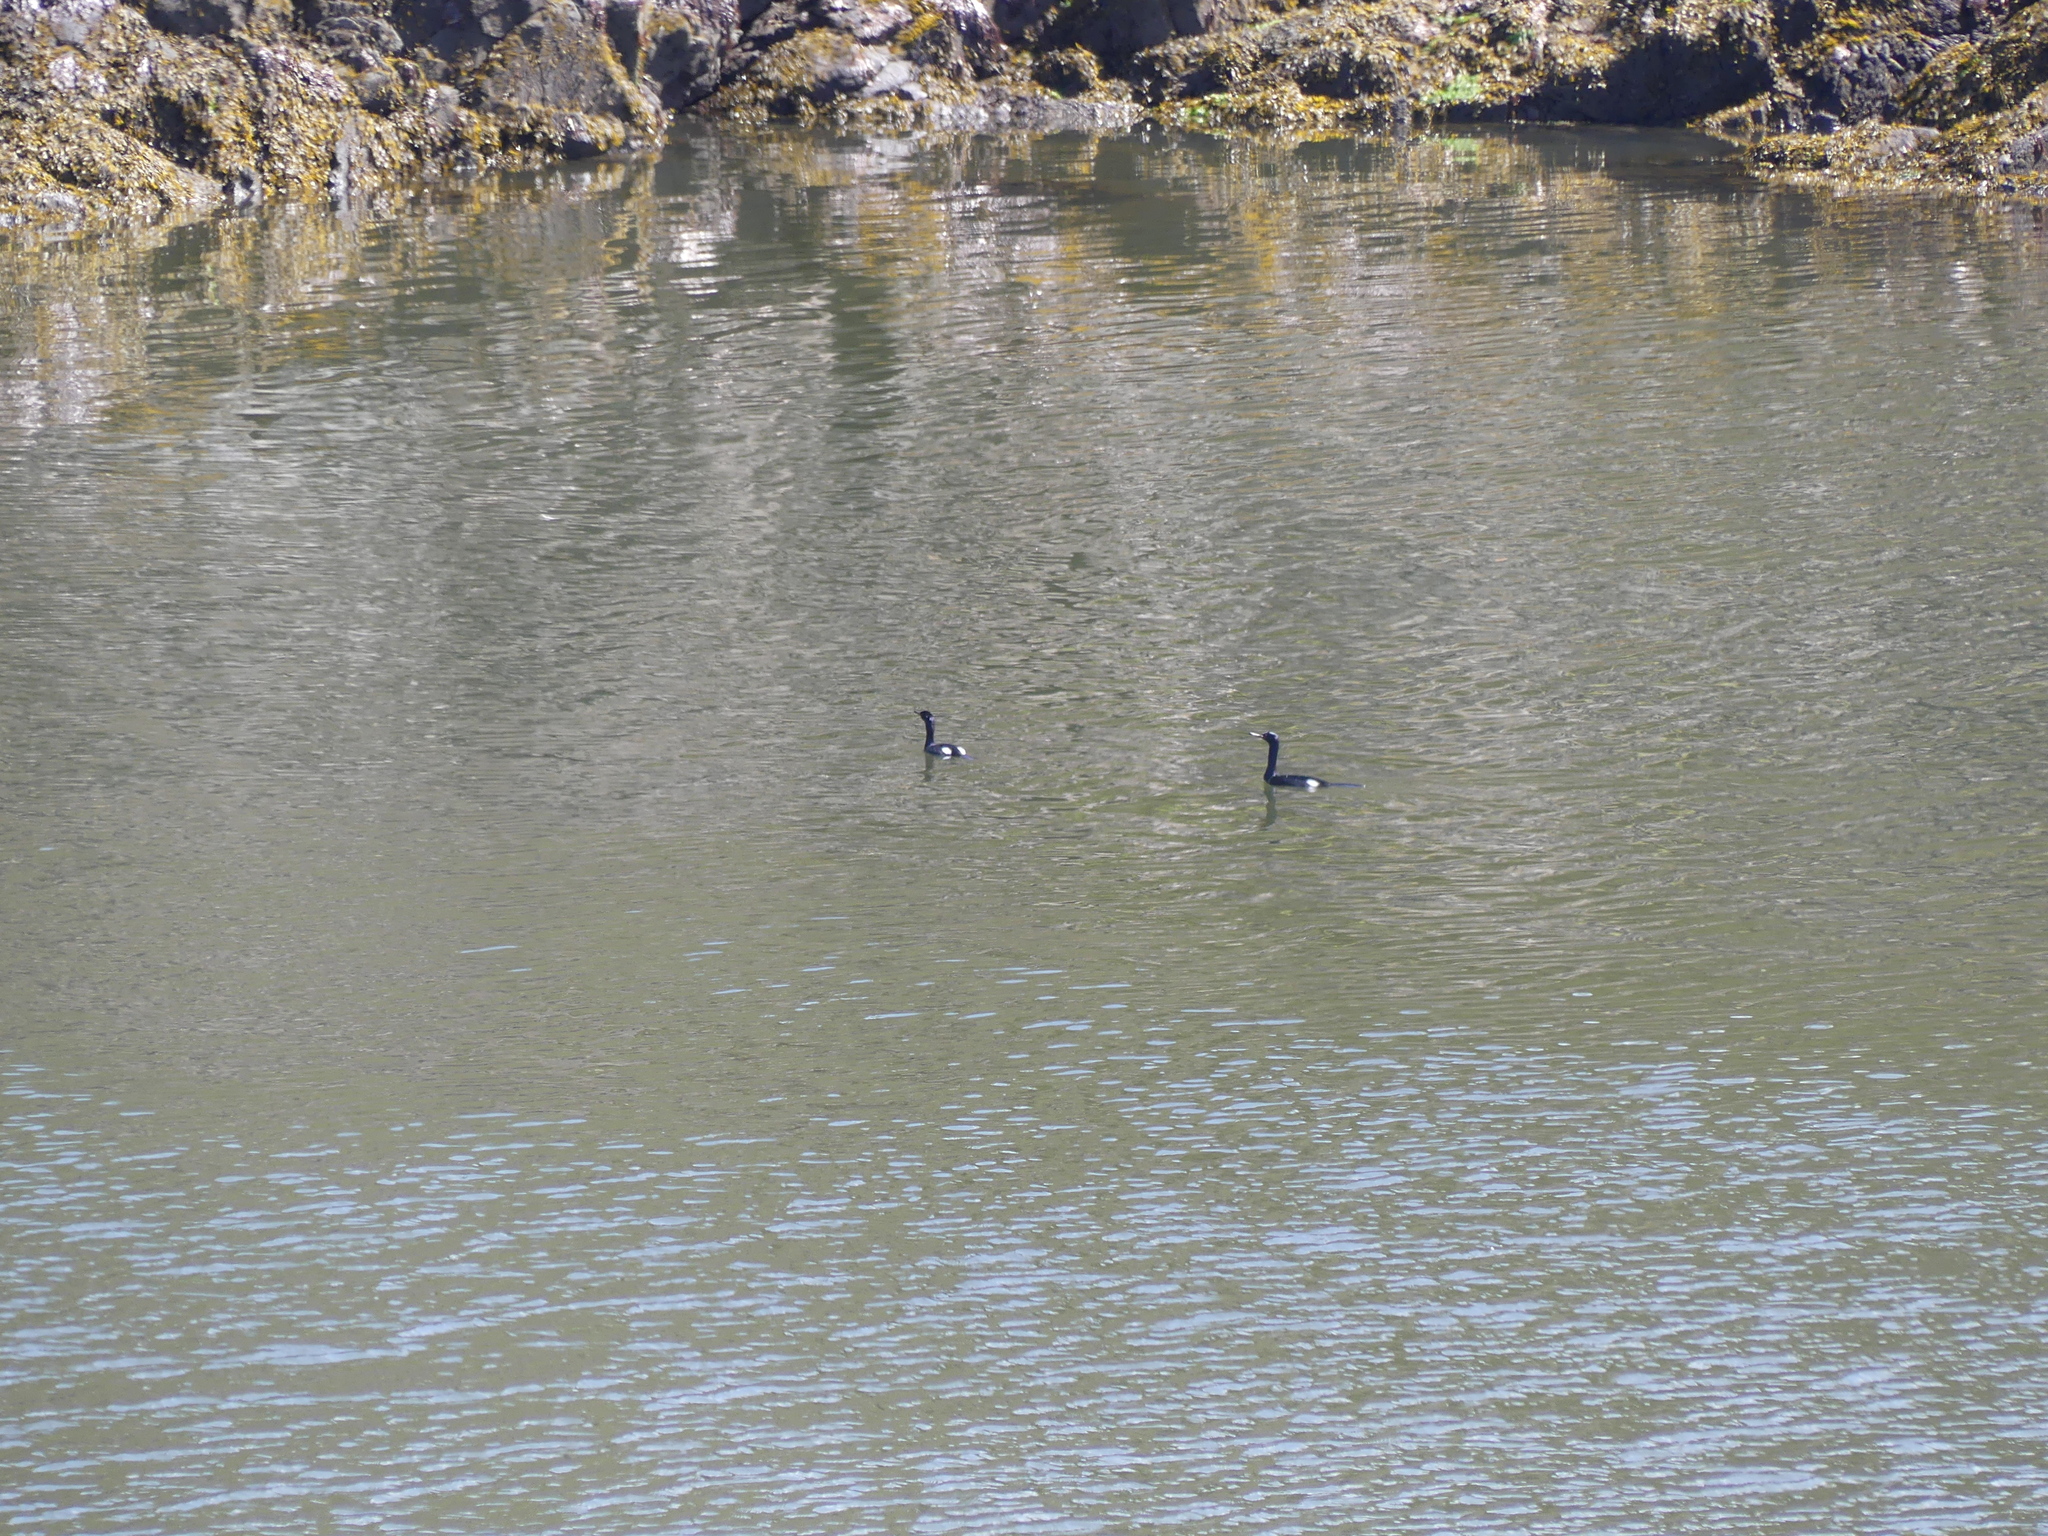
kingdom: Animalia
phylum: Chordata
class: Aves
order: Suliformes
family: Phalacrocoracidae
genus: Phalacrocorax
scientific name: Phalacrocorax pelagicus
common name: Pelagic cormorant
